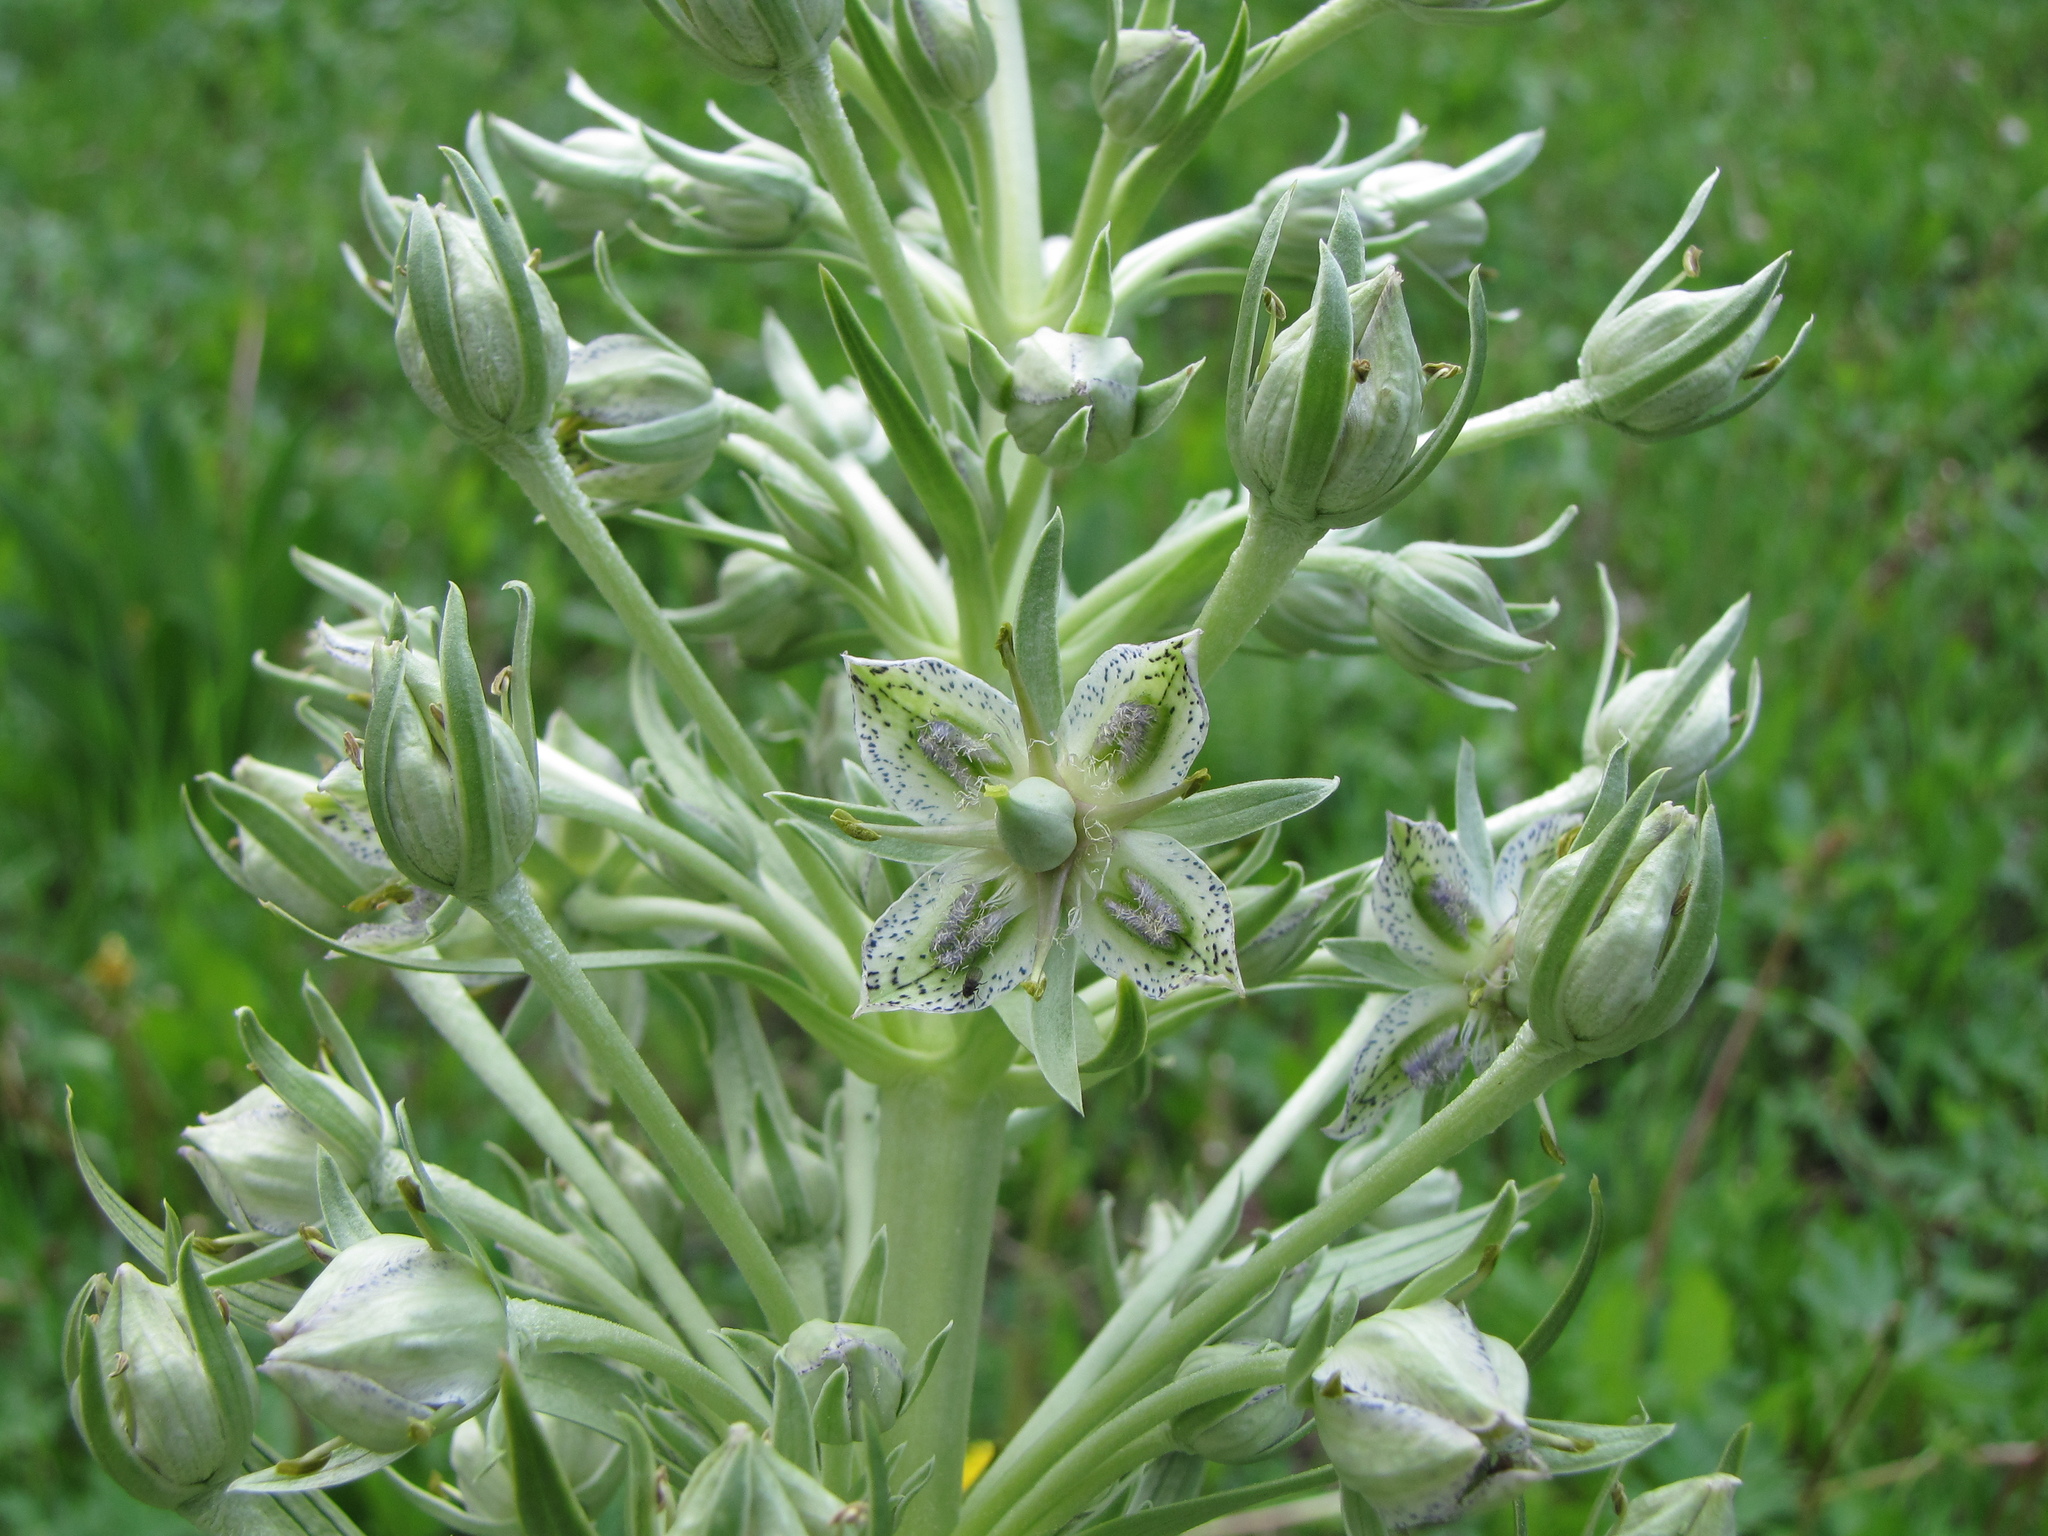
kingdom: Plantae
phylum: Tracheophyta
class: Magnoliopsida
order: Gentianales
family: Gentianaceae
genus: Frasera
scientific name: Frasera speciosa
